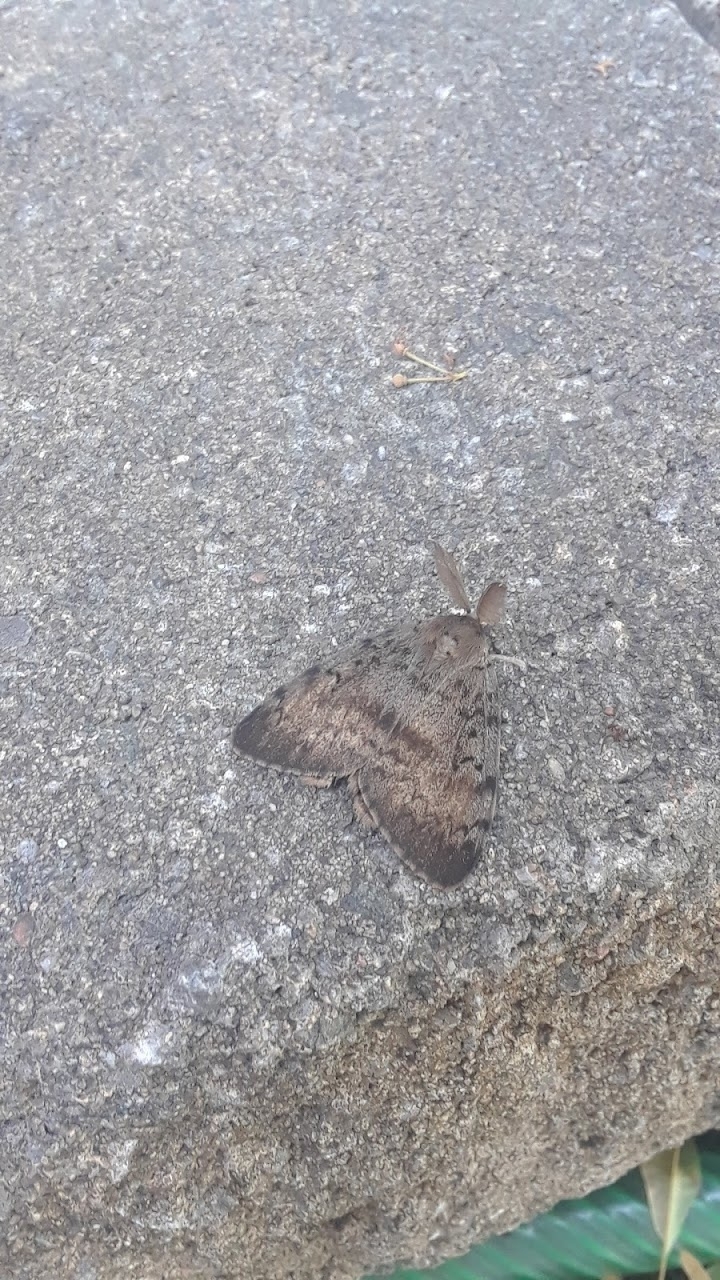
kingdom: Animalia
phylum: Arthropoda
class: Insecta
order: Lepidoptera
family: Erebidae
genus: Lymantria
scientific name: Lymantria dispar
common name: Gypsy moth
